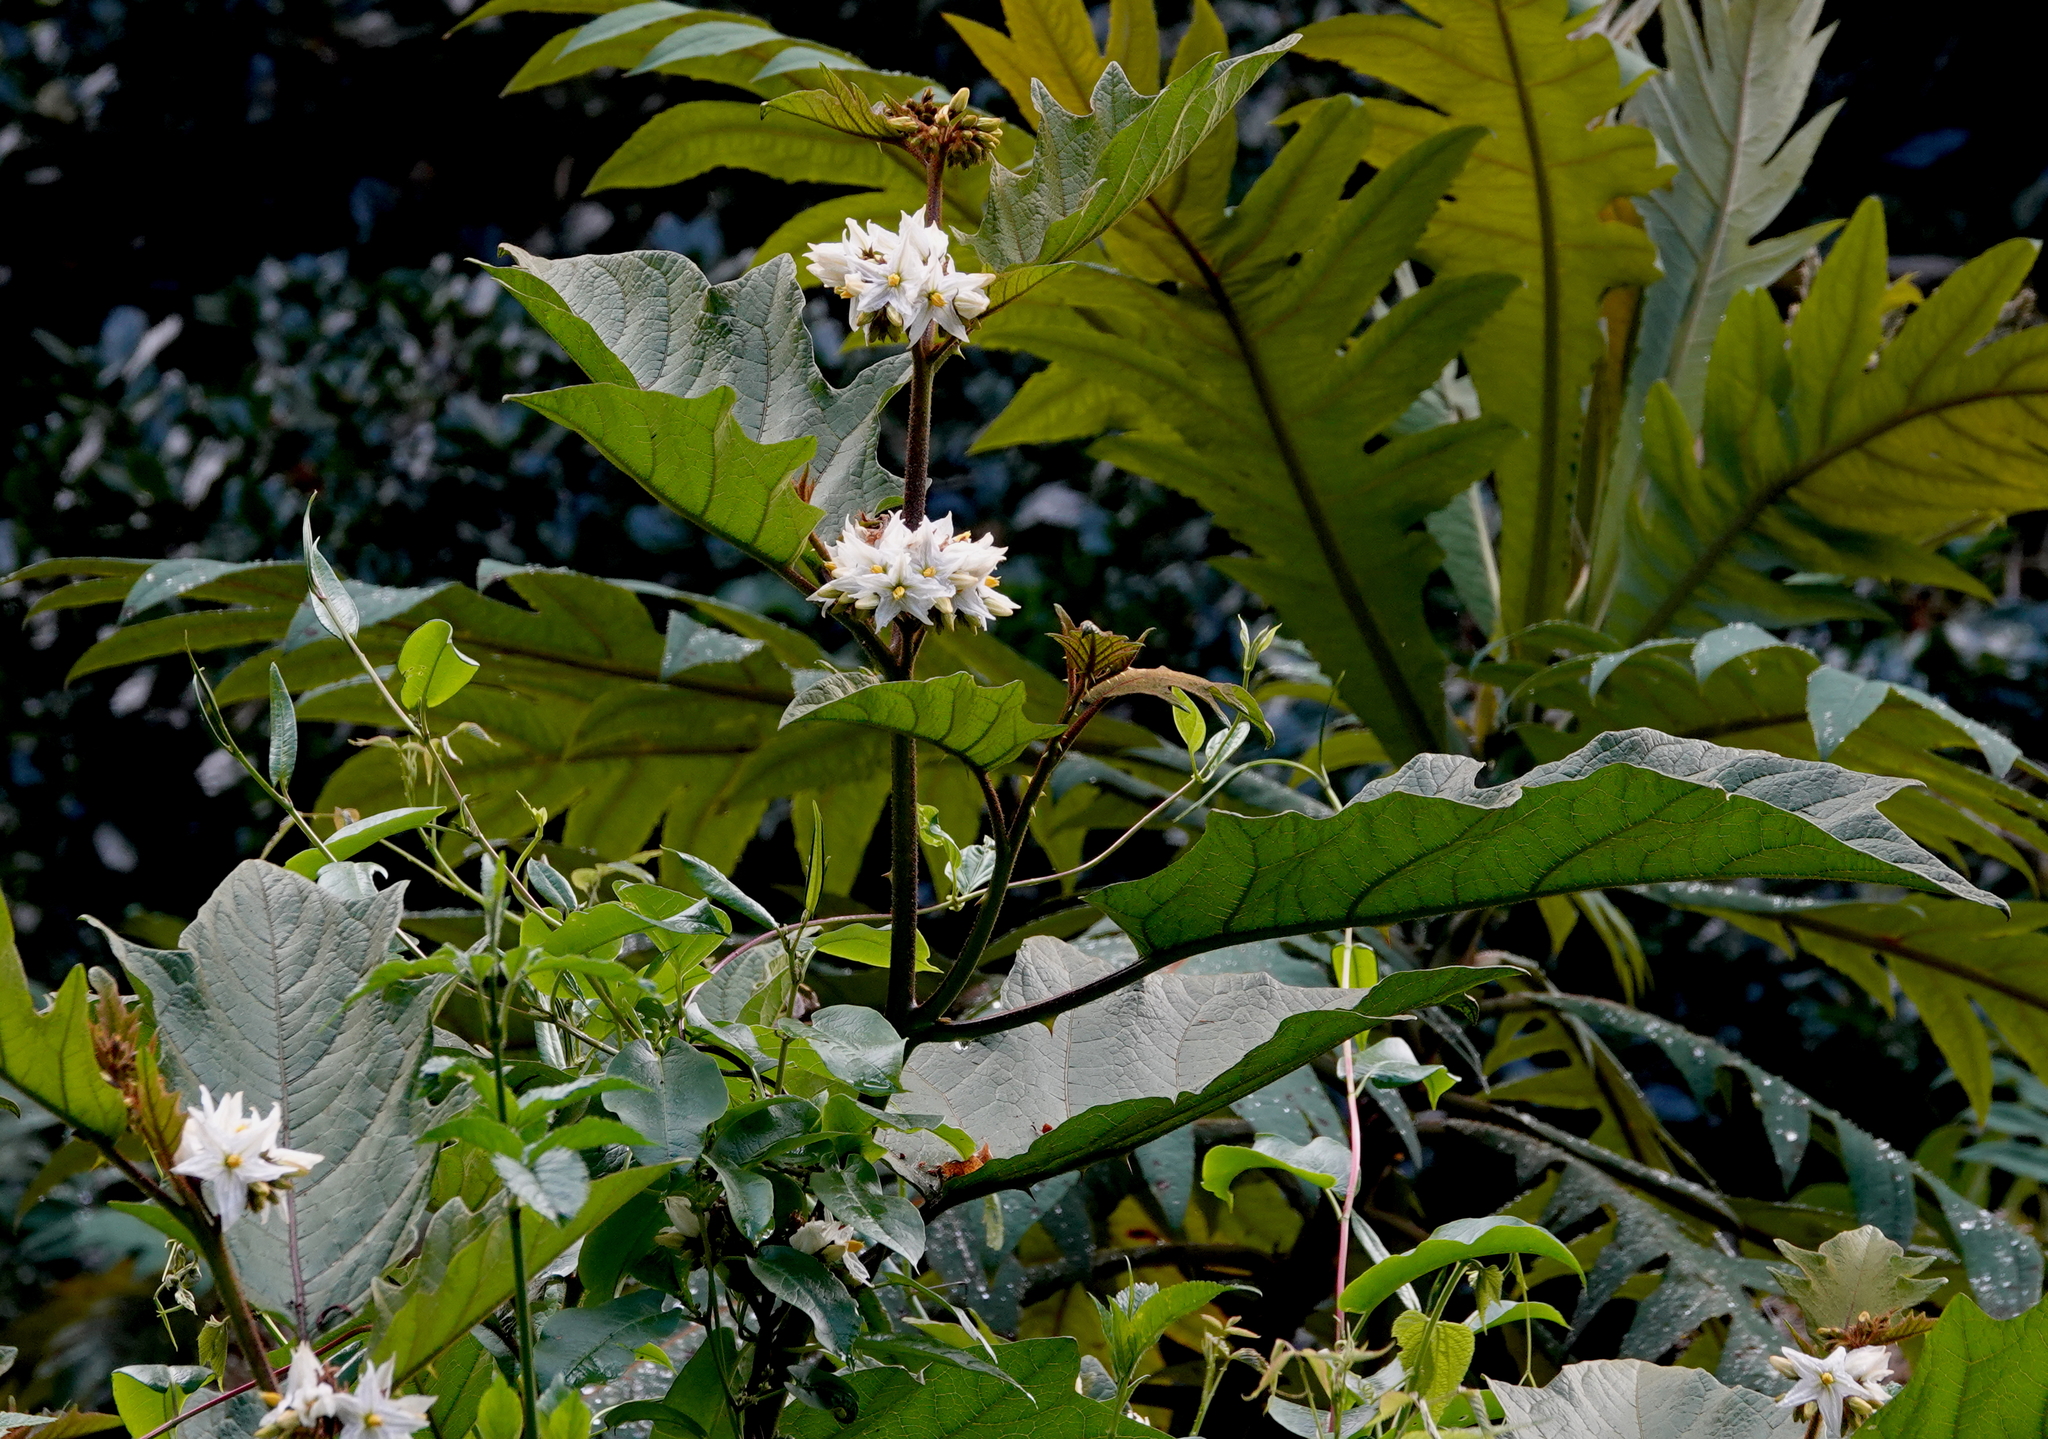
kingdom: Plantae
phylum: Tracheophyta
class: Magnoliopsida
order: Solanales
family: Solanaceae
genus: Solanum
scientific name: Solanum chrysotrichum
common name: Nightshade
